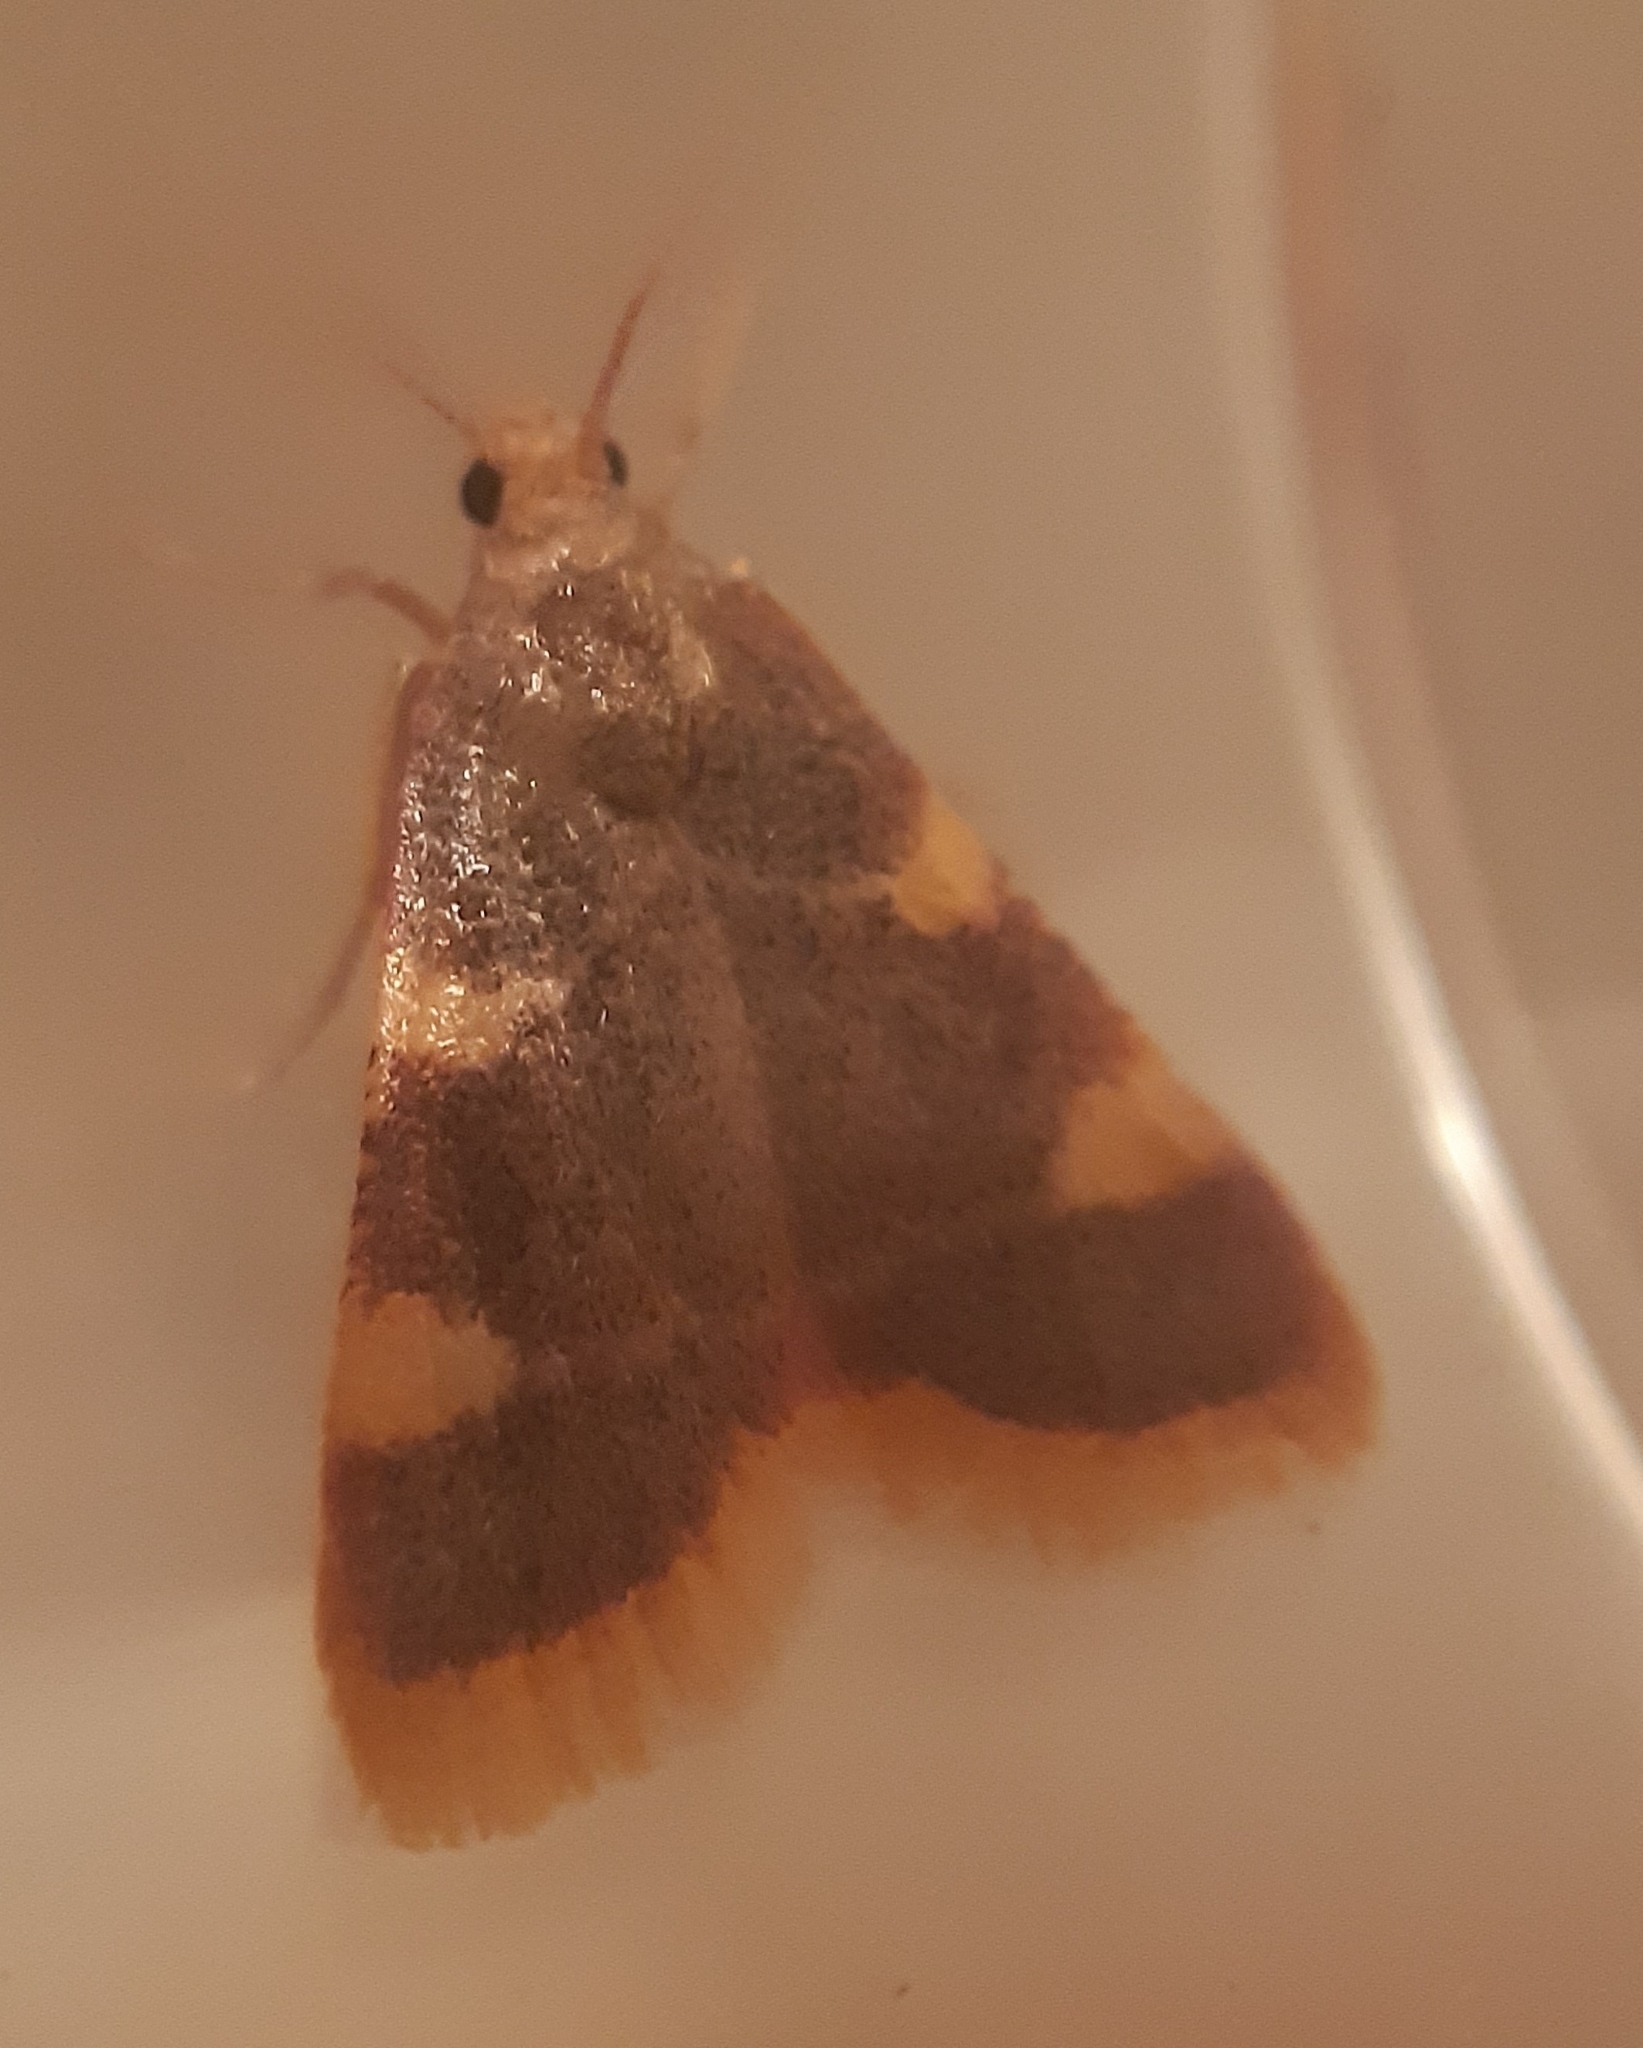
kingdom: Animalia
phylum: Arthropoda
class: Insecta
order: Lepidoptera
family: Pyralidae
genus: Hypsopygia
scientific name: Hypsopygia costalis
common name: Gold triangle
